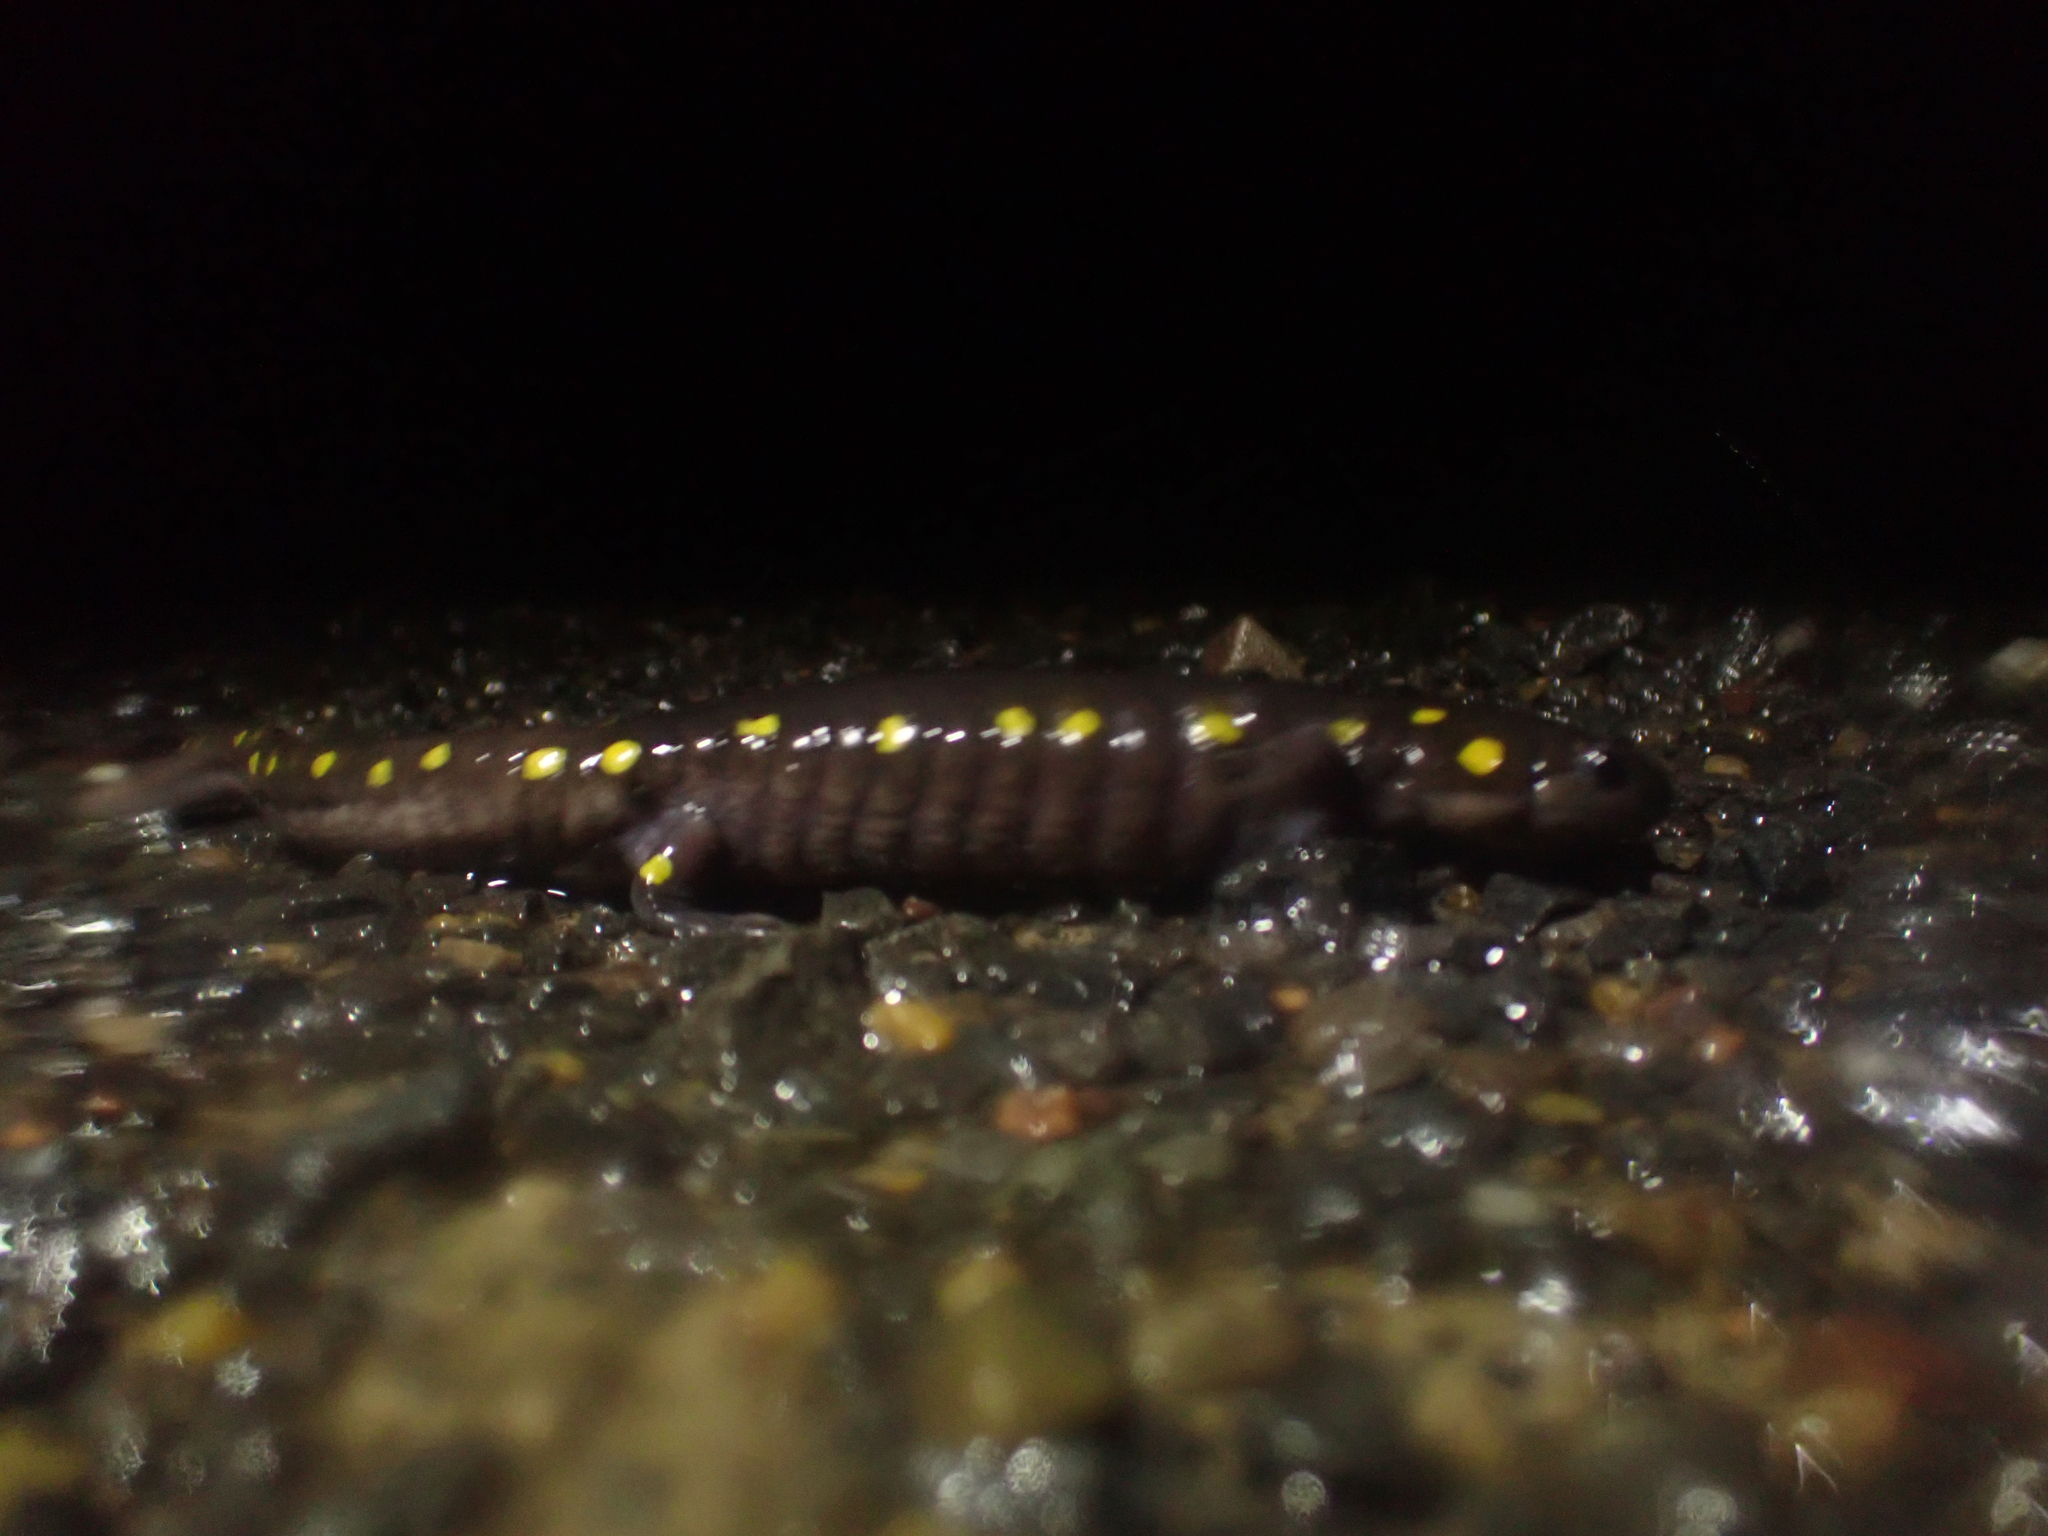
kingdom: Animalia
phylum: Chordata
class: Amphibia
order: Caudata
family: Ambystomatidae
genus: Ambystoma
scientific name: Ambystoma maculatum
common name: Spotted salamander
